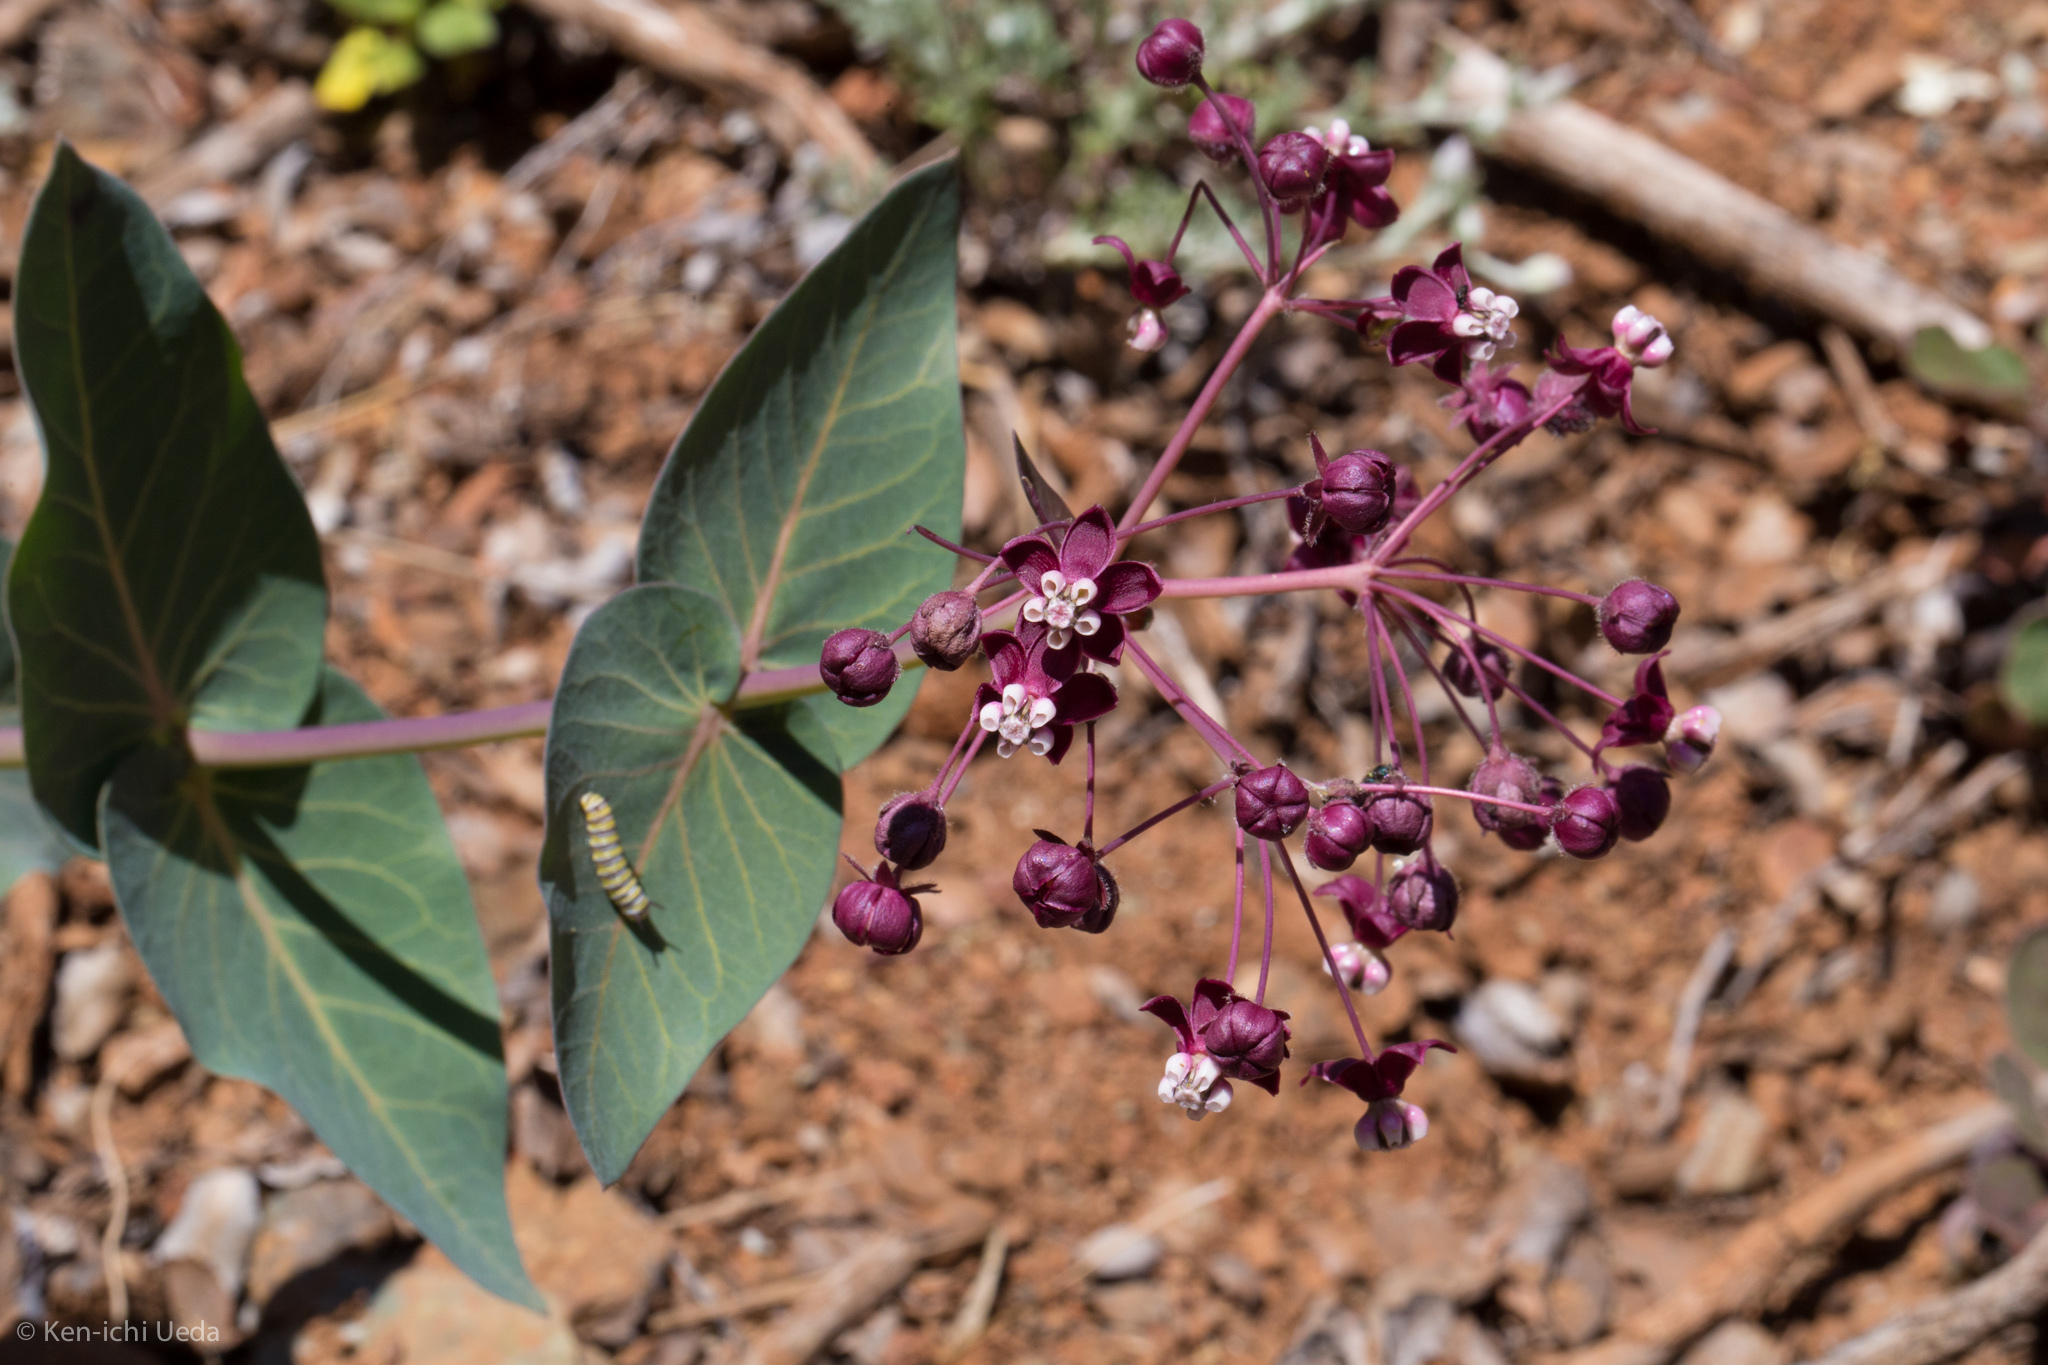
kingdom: Plantae
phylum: Tracheophyta
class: Magnoliopsida
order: Gentianales
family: Apocynaceae
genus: Asclepias
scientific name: Asclepias cordifolia
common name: Purple milkweed
